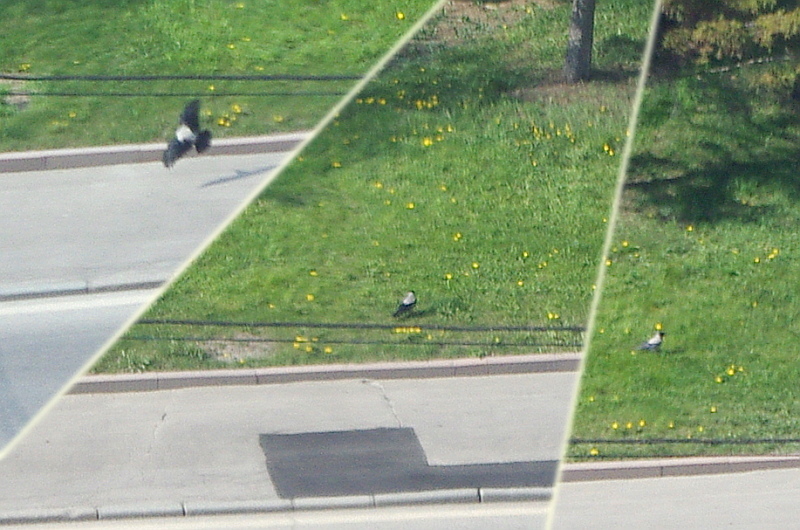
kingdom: Animalia
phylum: Chordata
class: Aves
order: Passeriformes
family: Corvidae
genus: Corvus
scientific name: Corvus cornix
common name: Hooded crow
